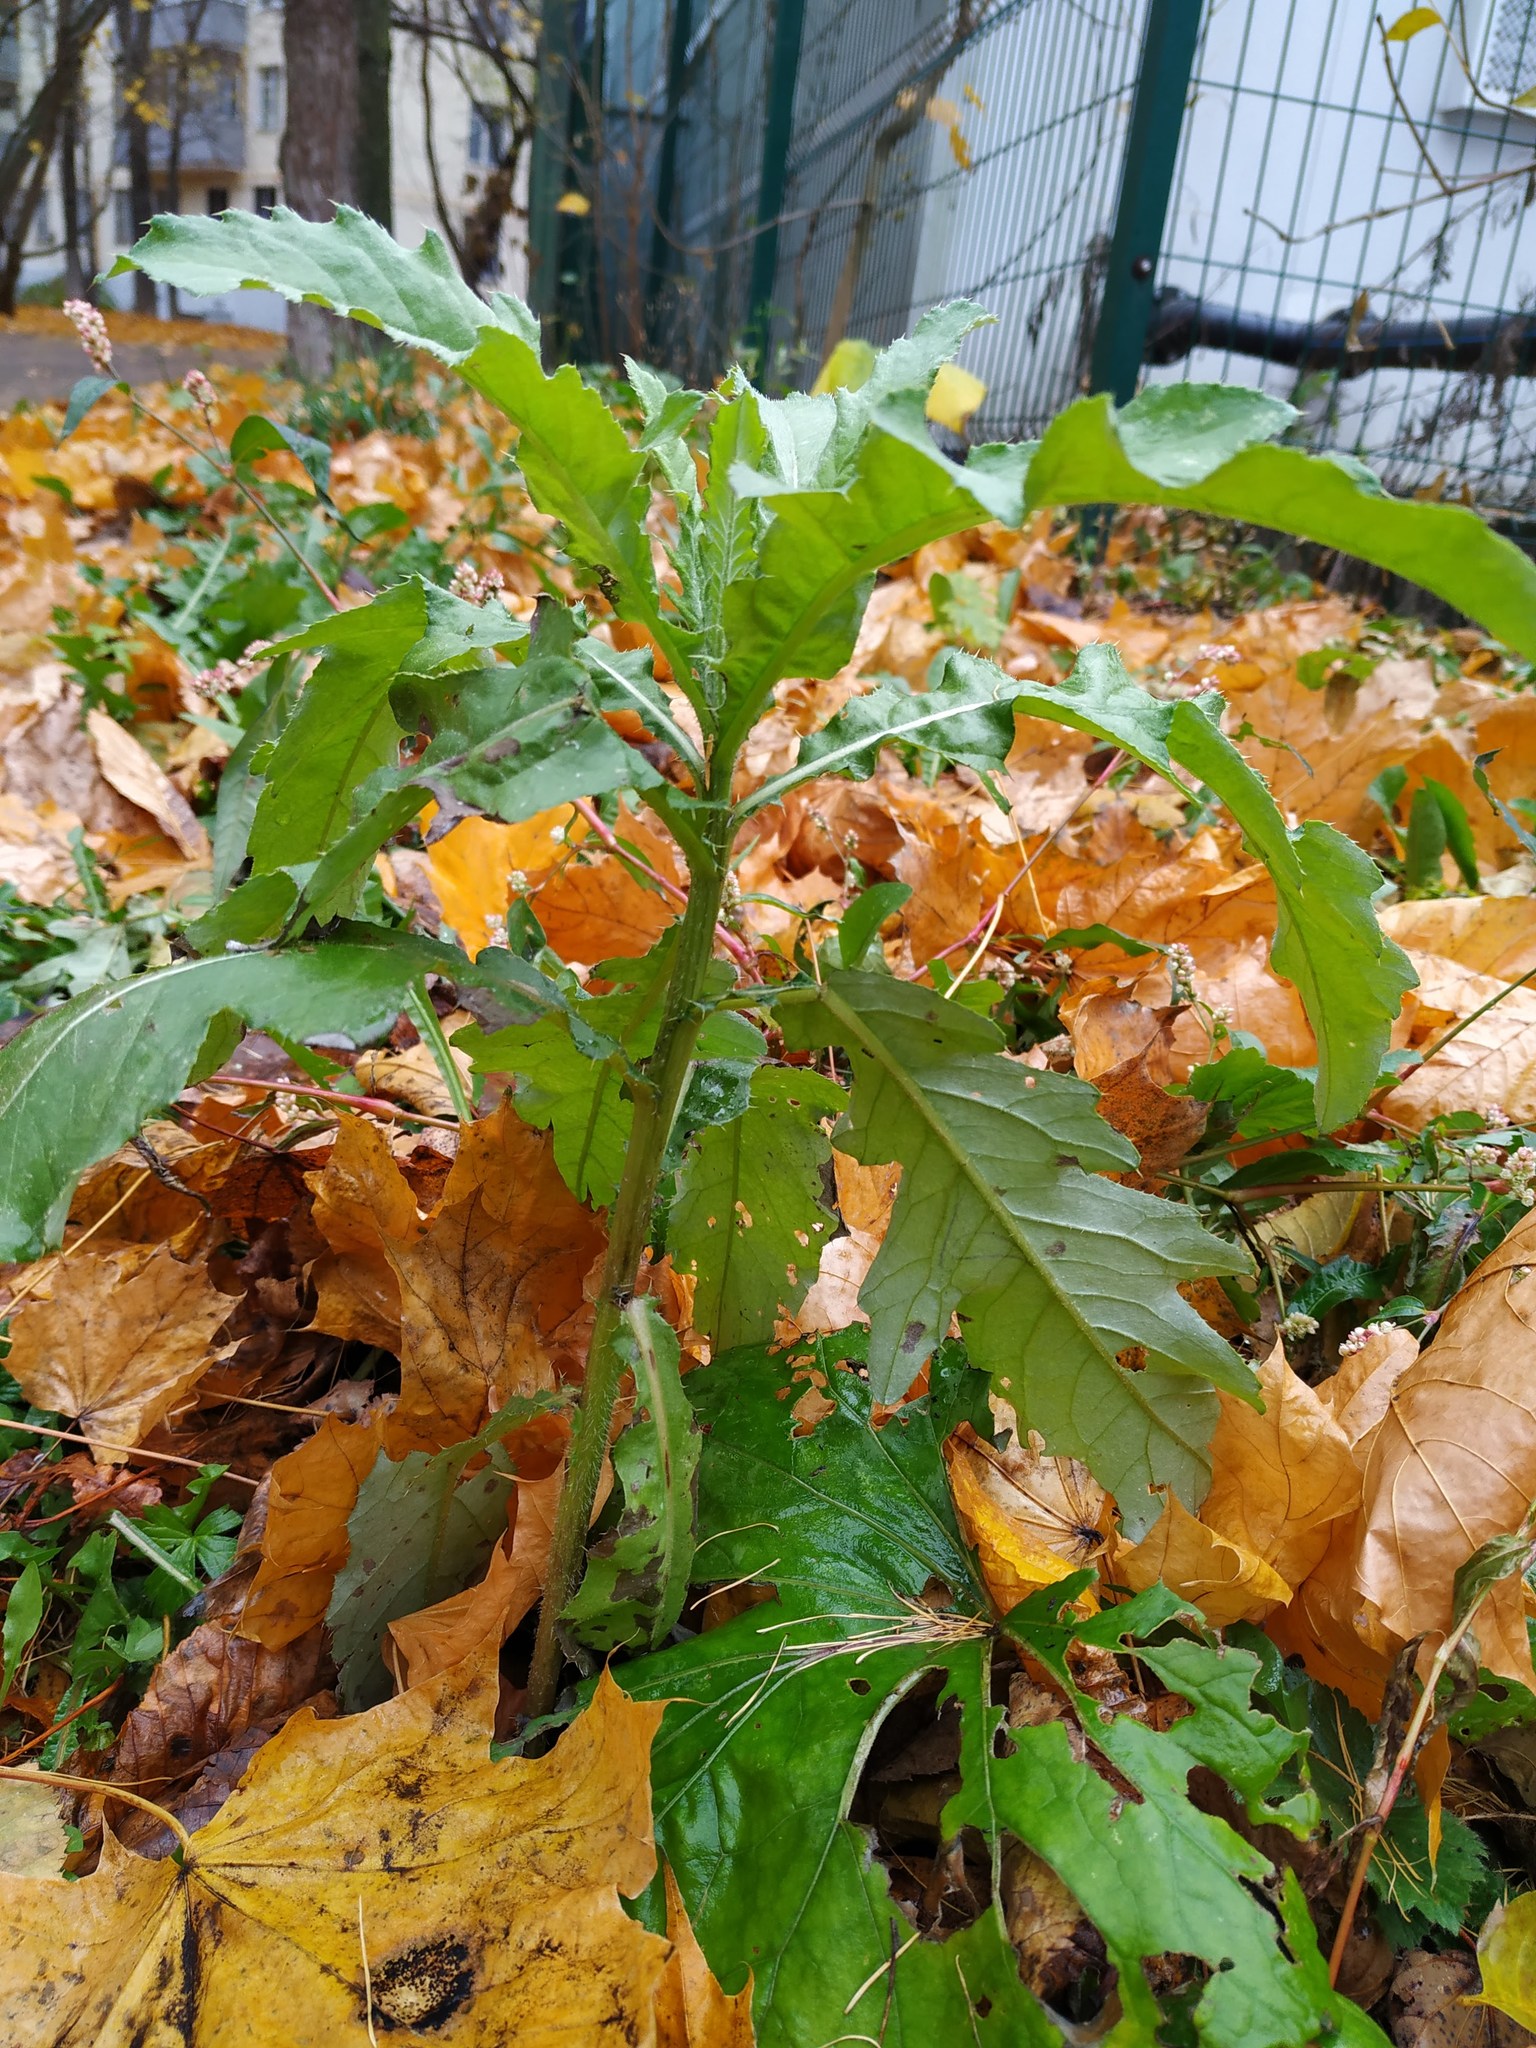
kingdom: Plantae
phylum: Tracheophyta
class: Magnoliopsida
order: Asterales
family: Asteraceae
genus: Cirsium
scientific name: Cirsium arvense
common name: Creeping thistle
